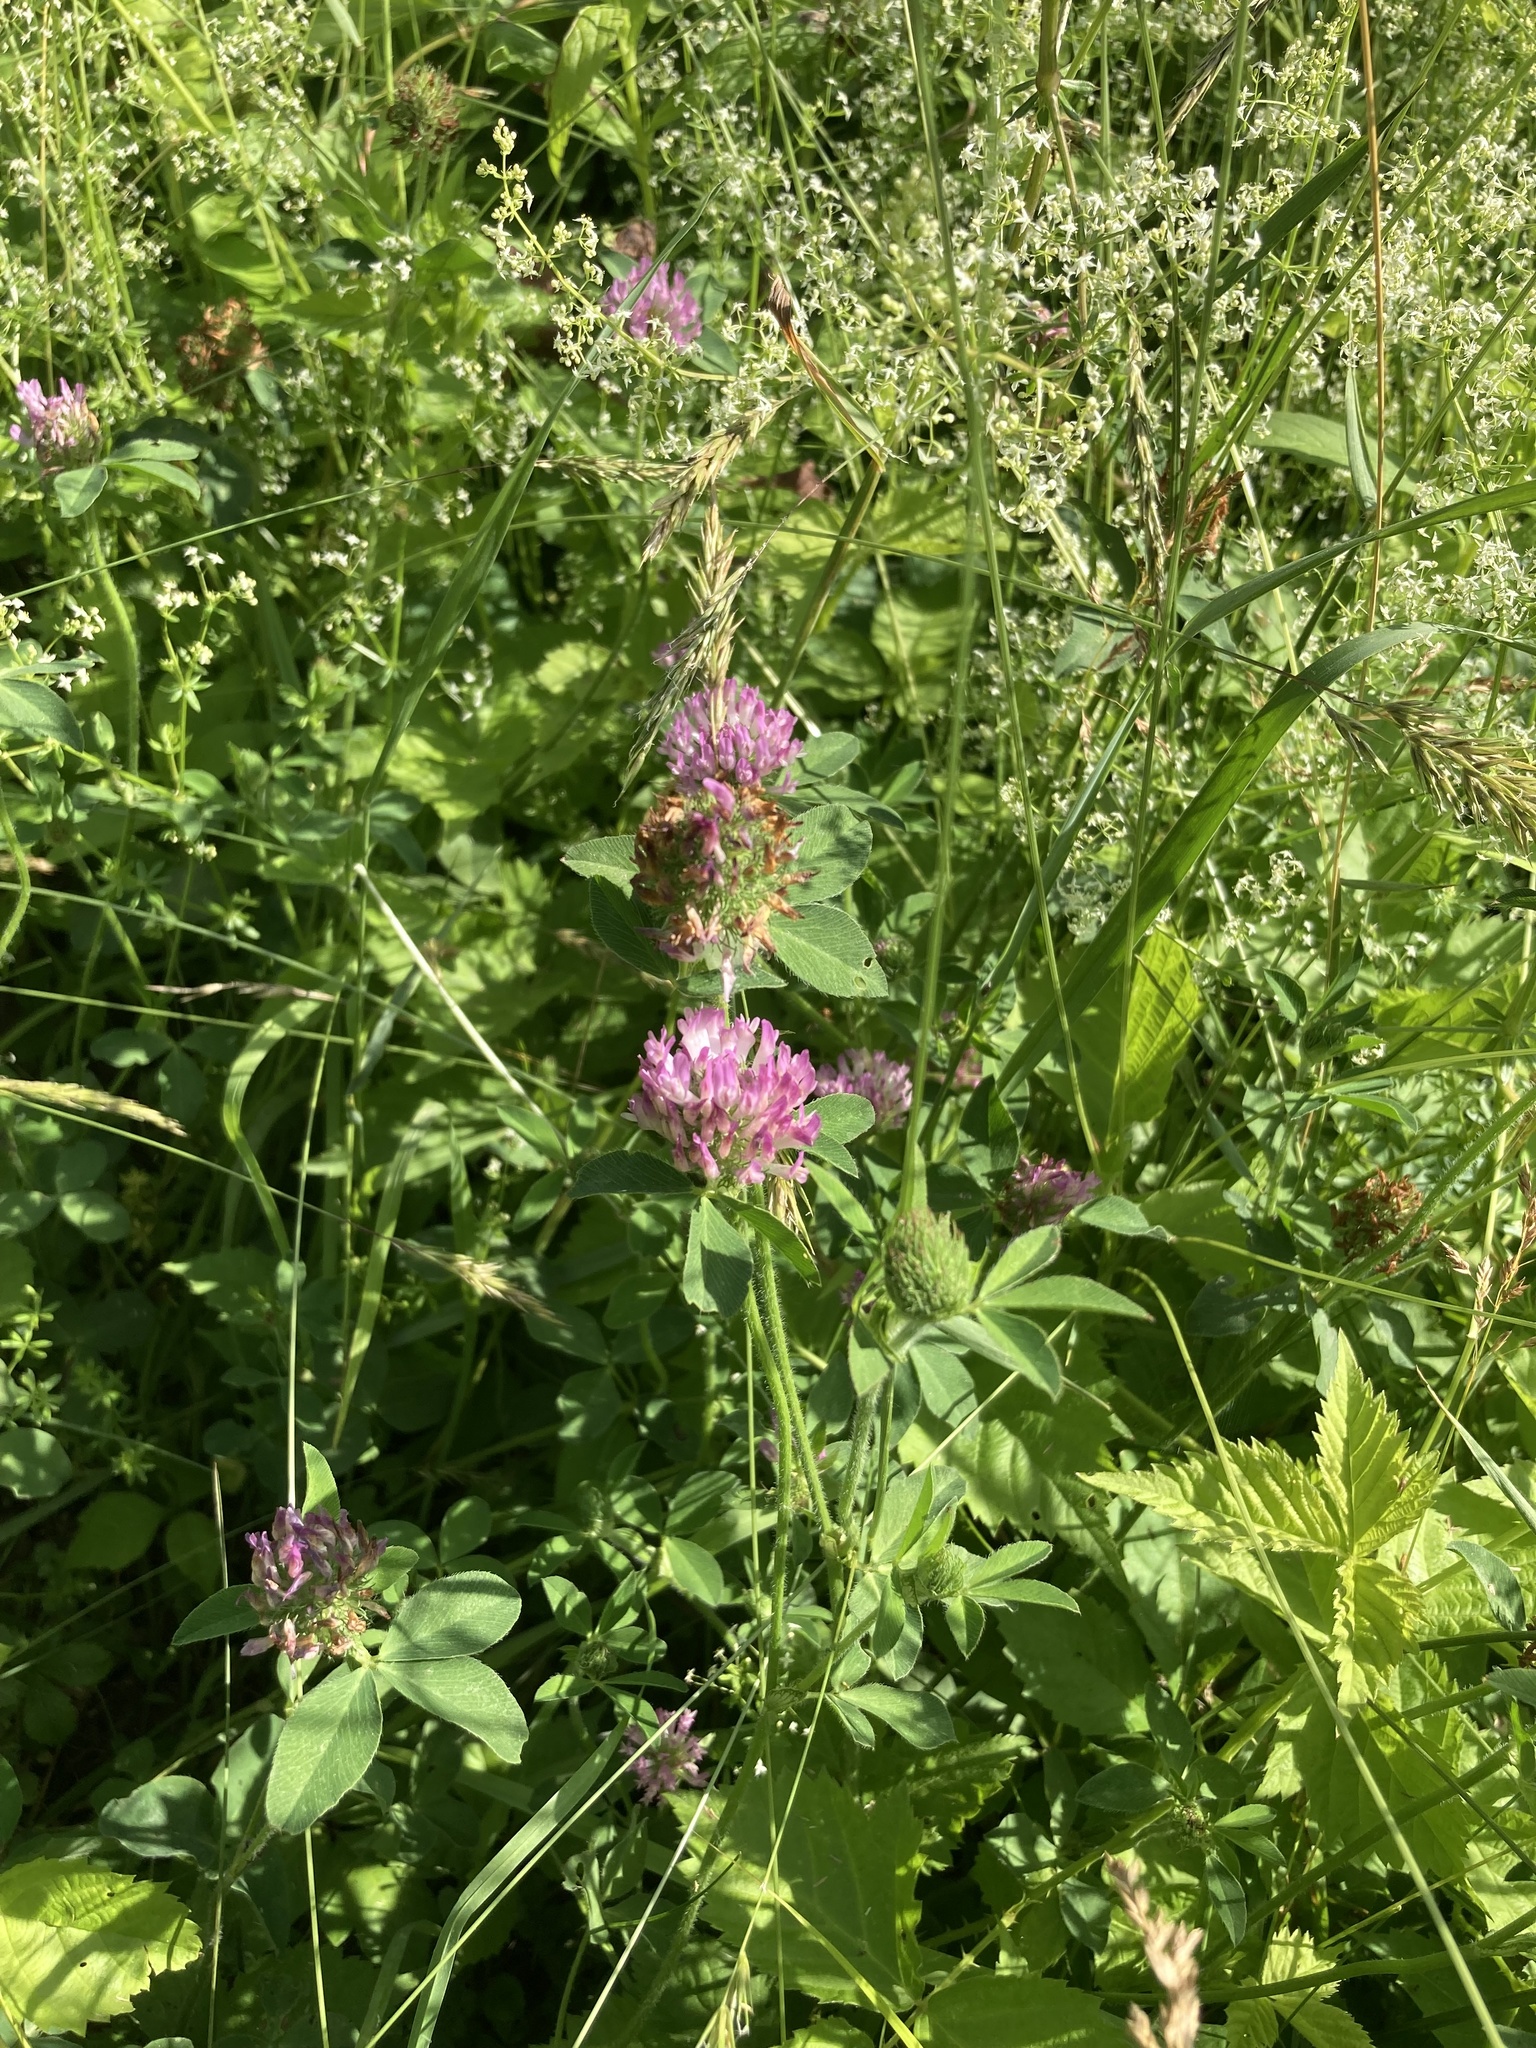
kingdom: Plantae
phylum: Tracheophyta
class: Magnoliopsida
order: Fabales
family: Fabaceae
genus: Trifolium
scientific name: Trifolium pratense
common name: Red clover
